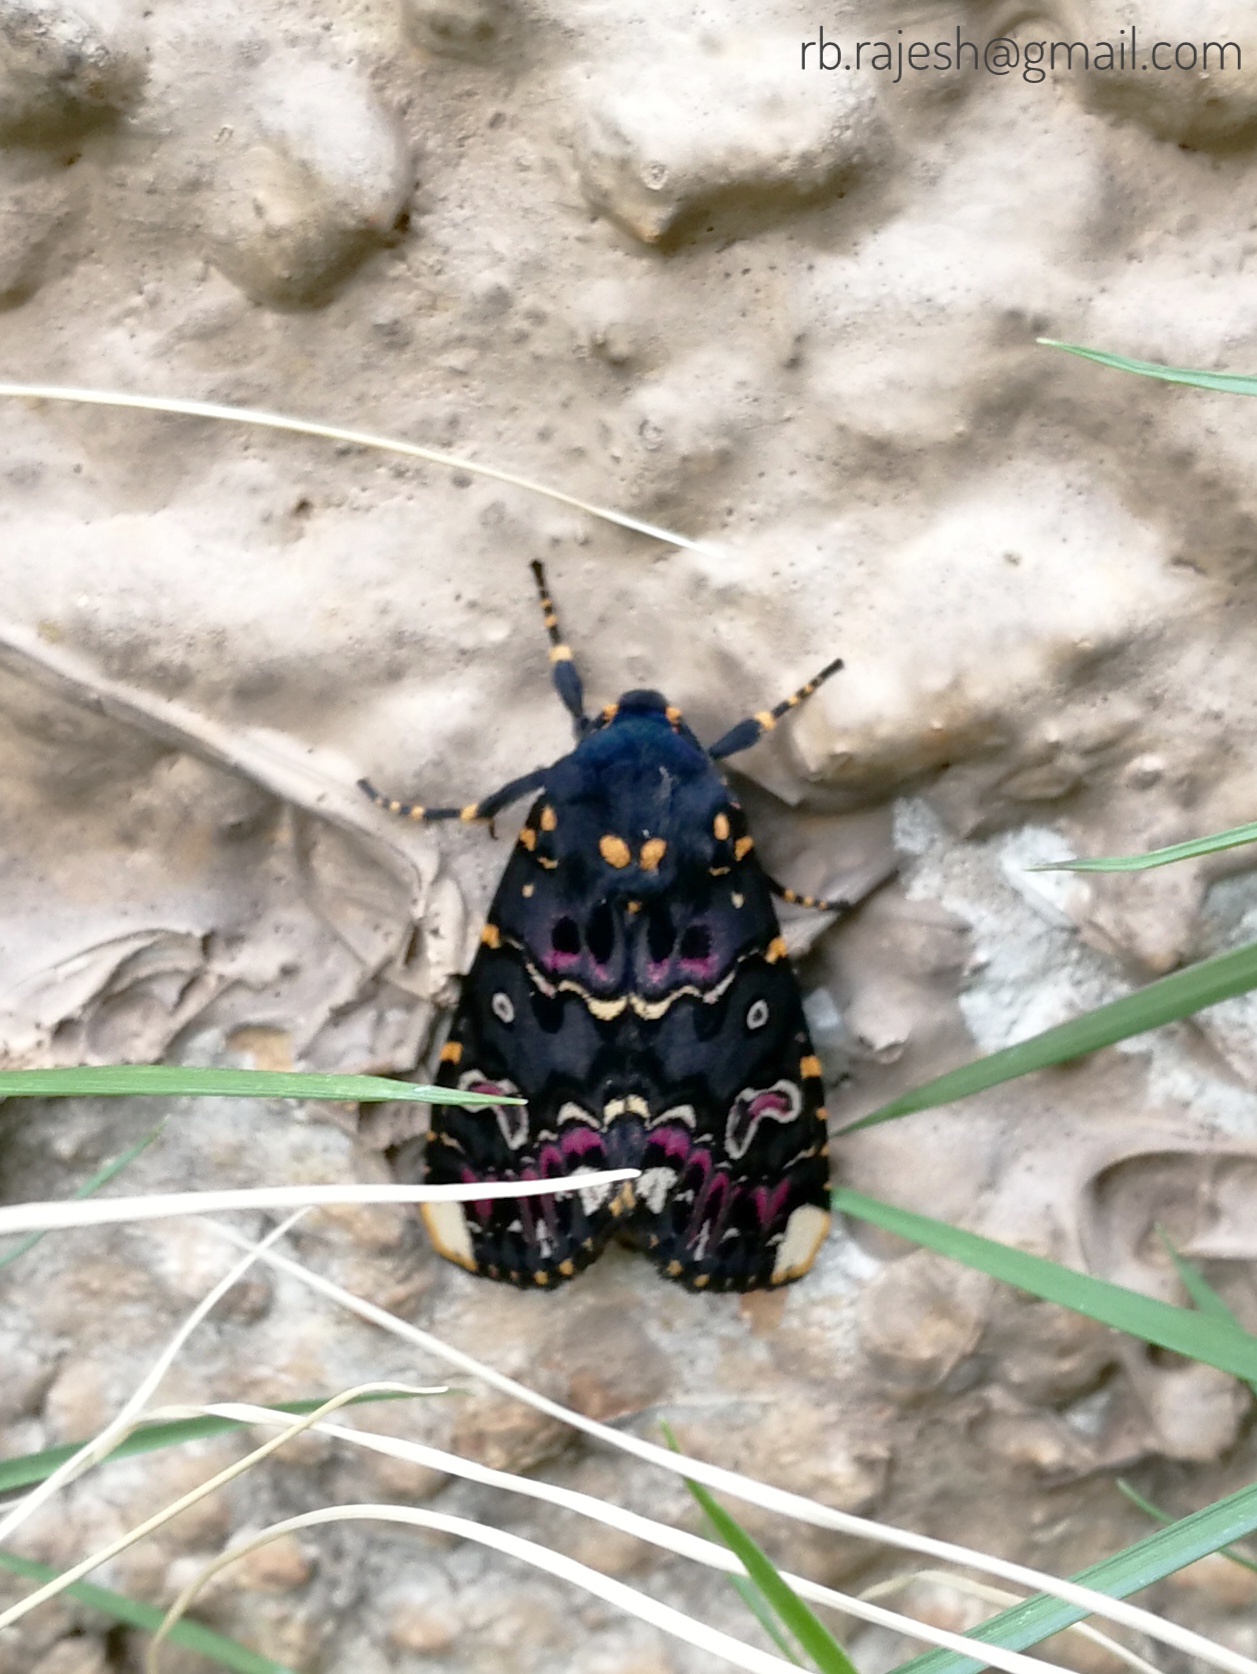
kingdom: Animalia
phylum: Arthropoda
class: Insecta
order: Lepidoptera
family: Noctuidae
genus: Polytela
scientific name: Polytela gloriosae
